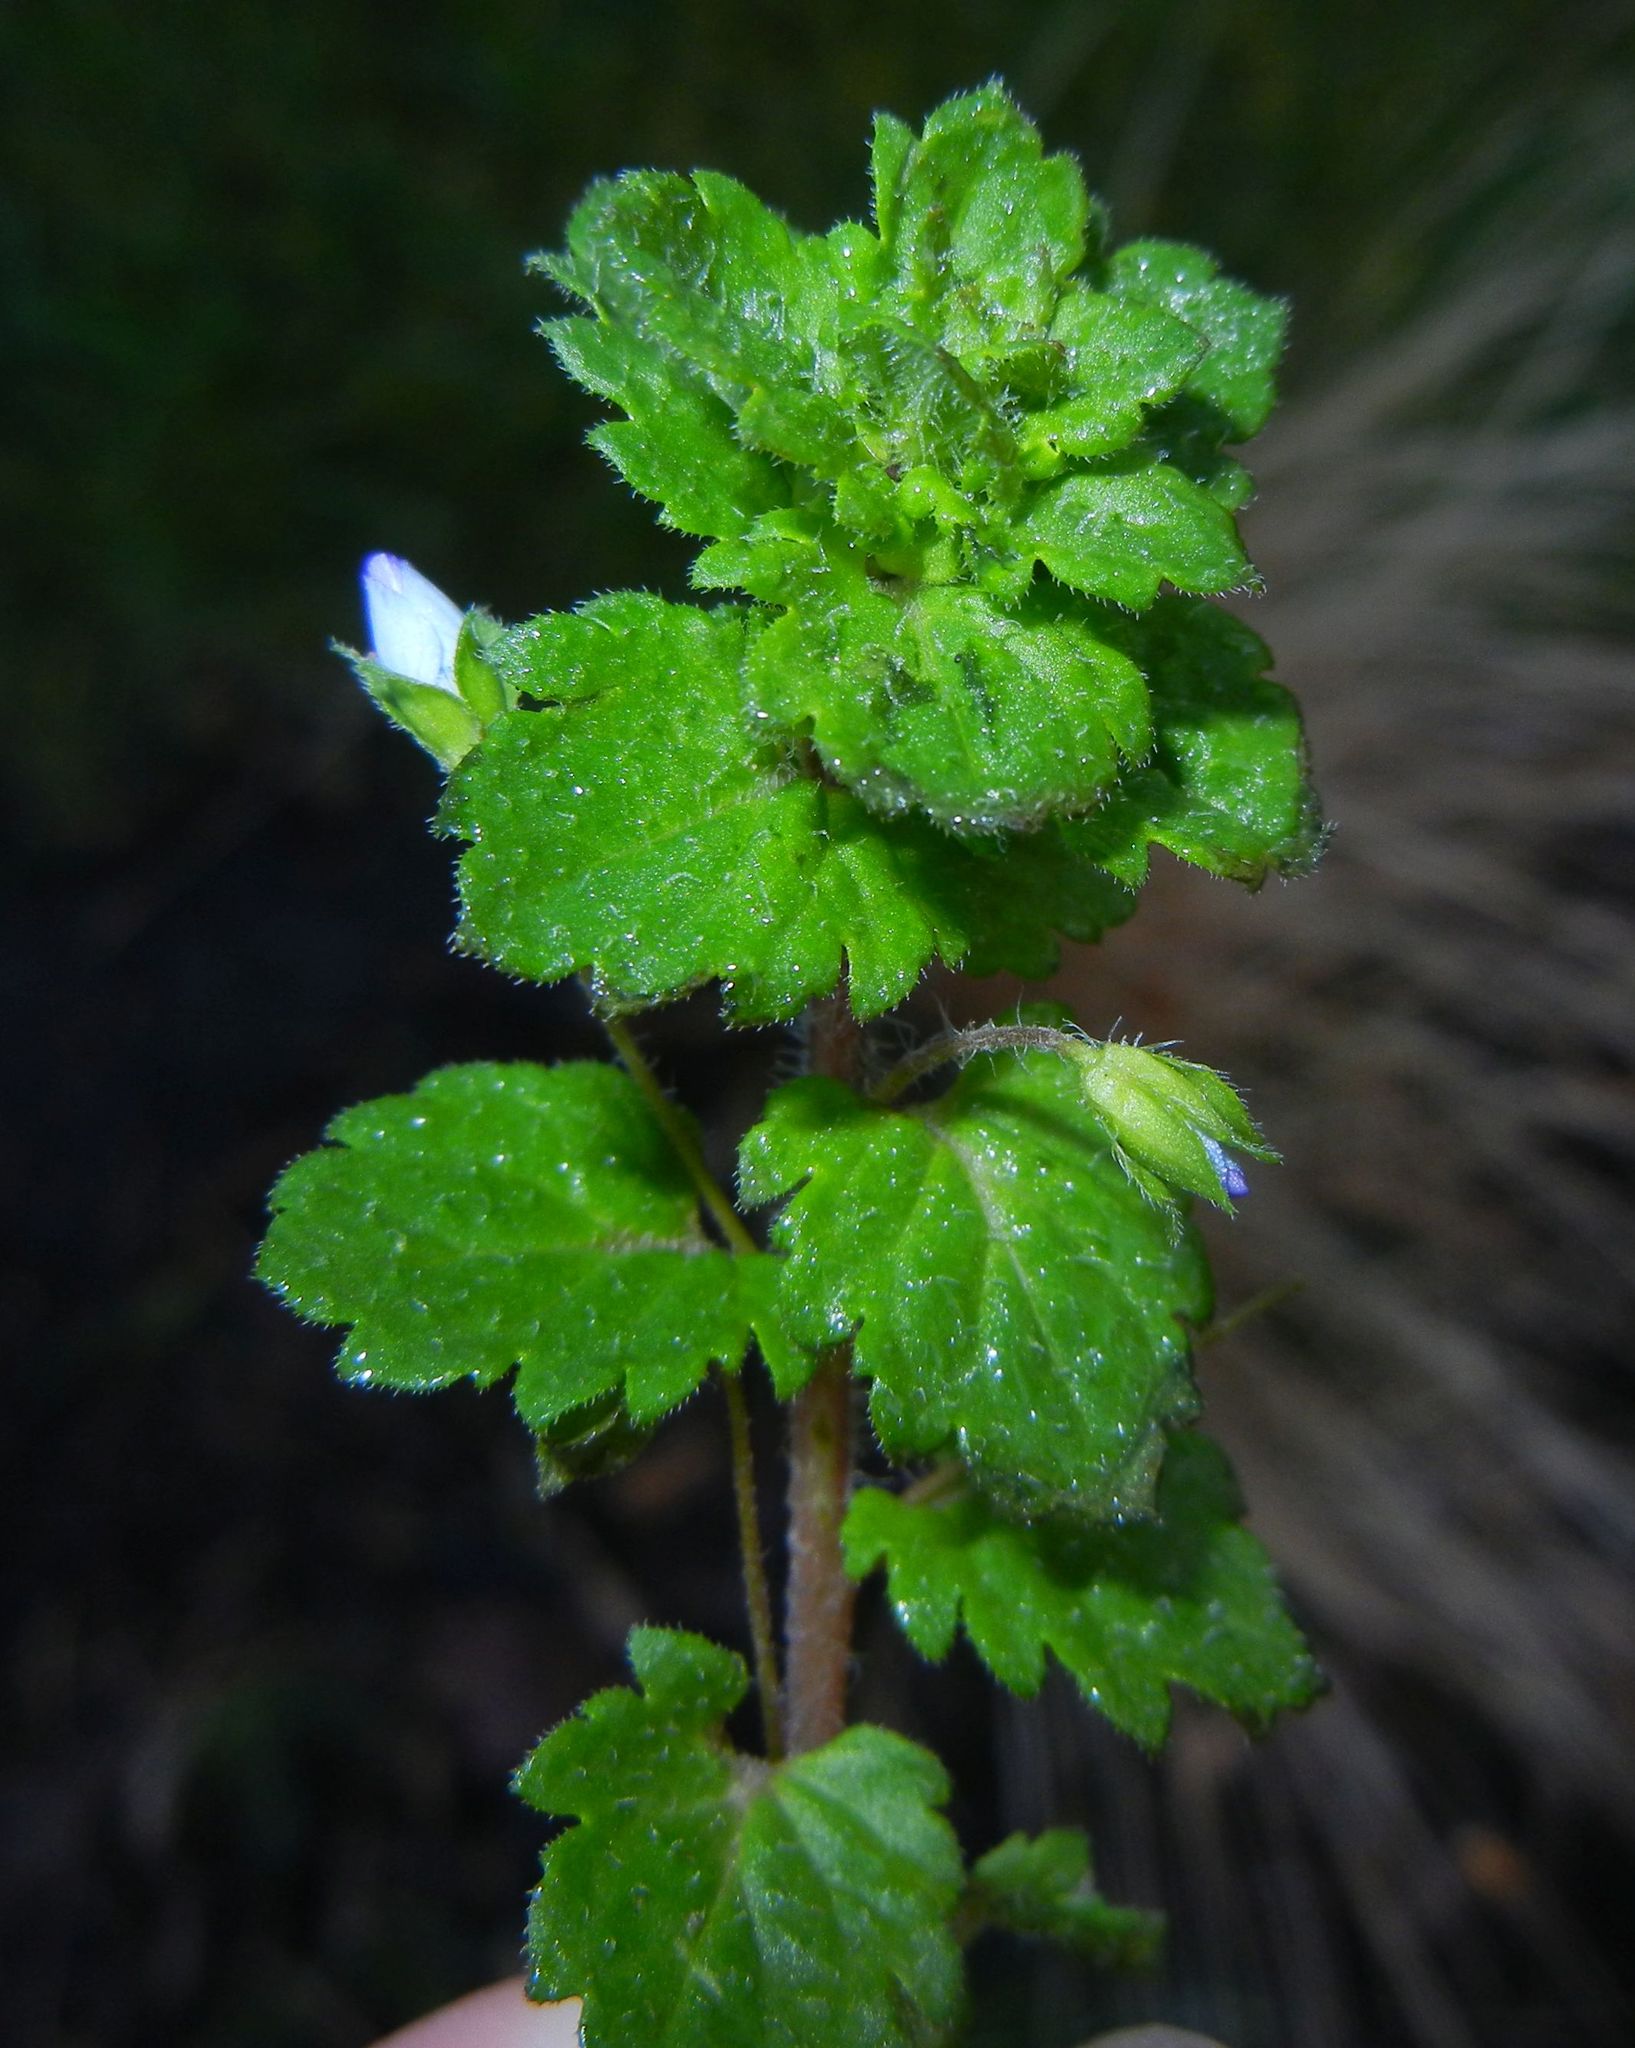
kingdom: Plantae
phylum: Tracheophyta
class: Magnoliopsida
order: Lamiales
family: Plantaginaceae
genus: Veronica
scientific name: Veronica persica
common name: Common field-speedwell
